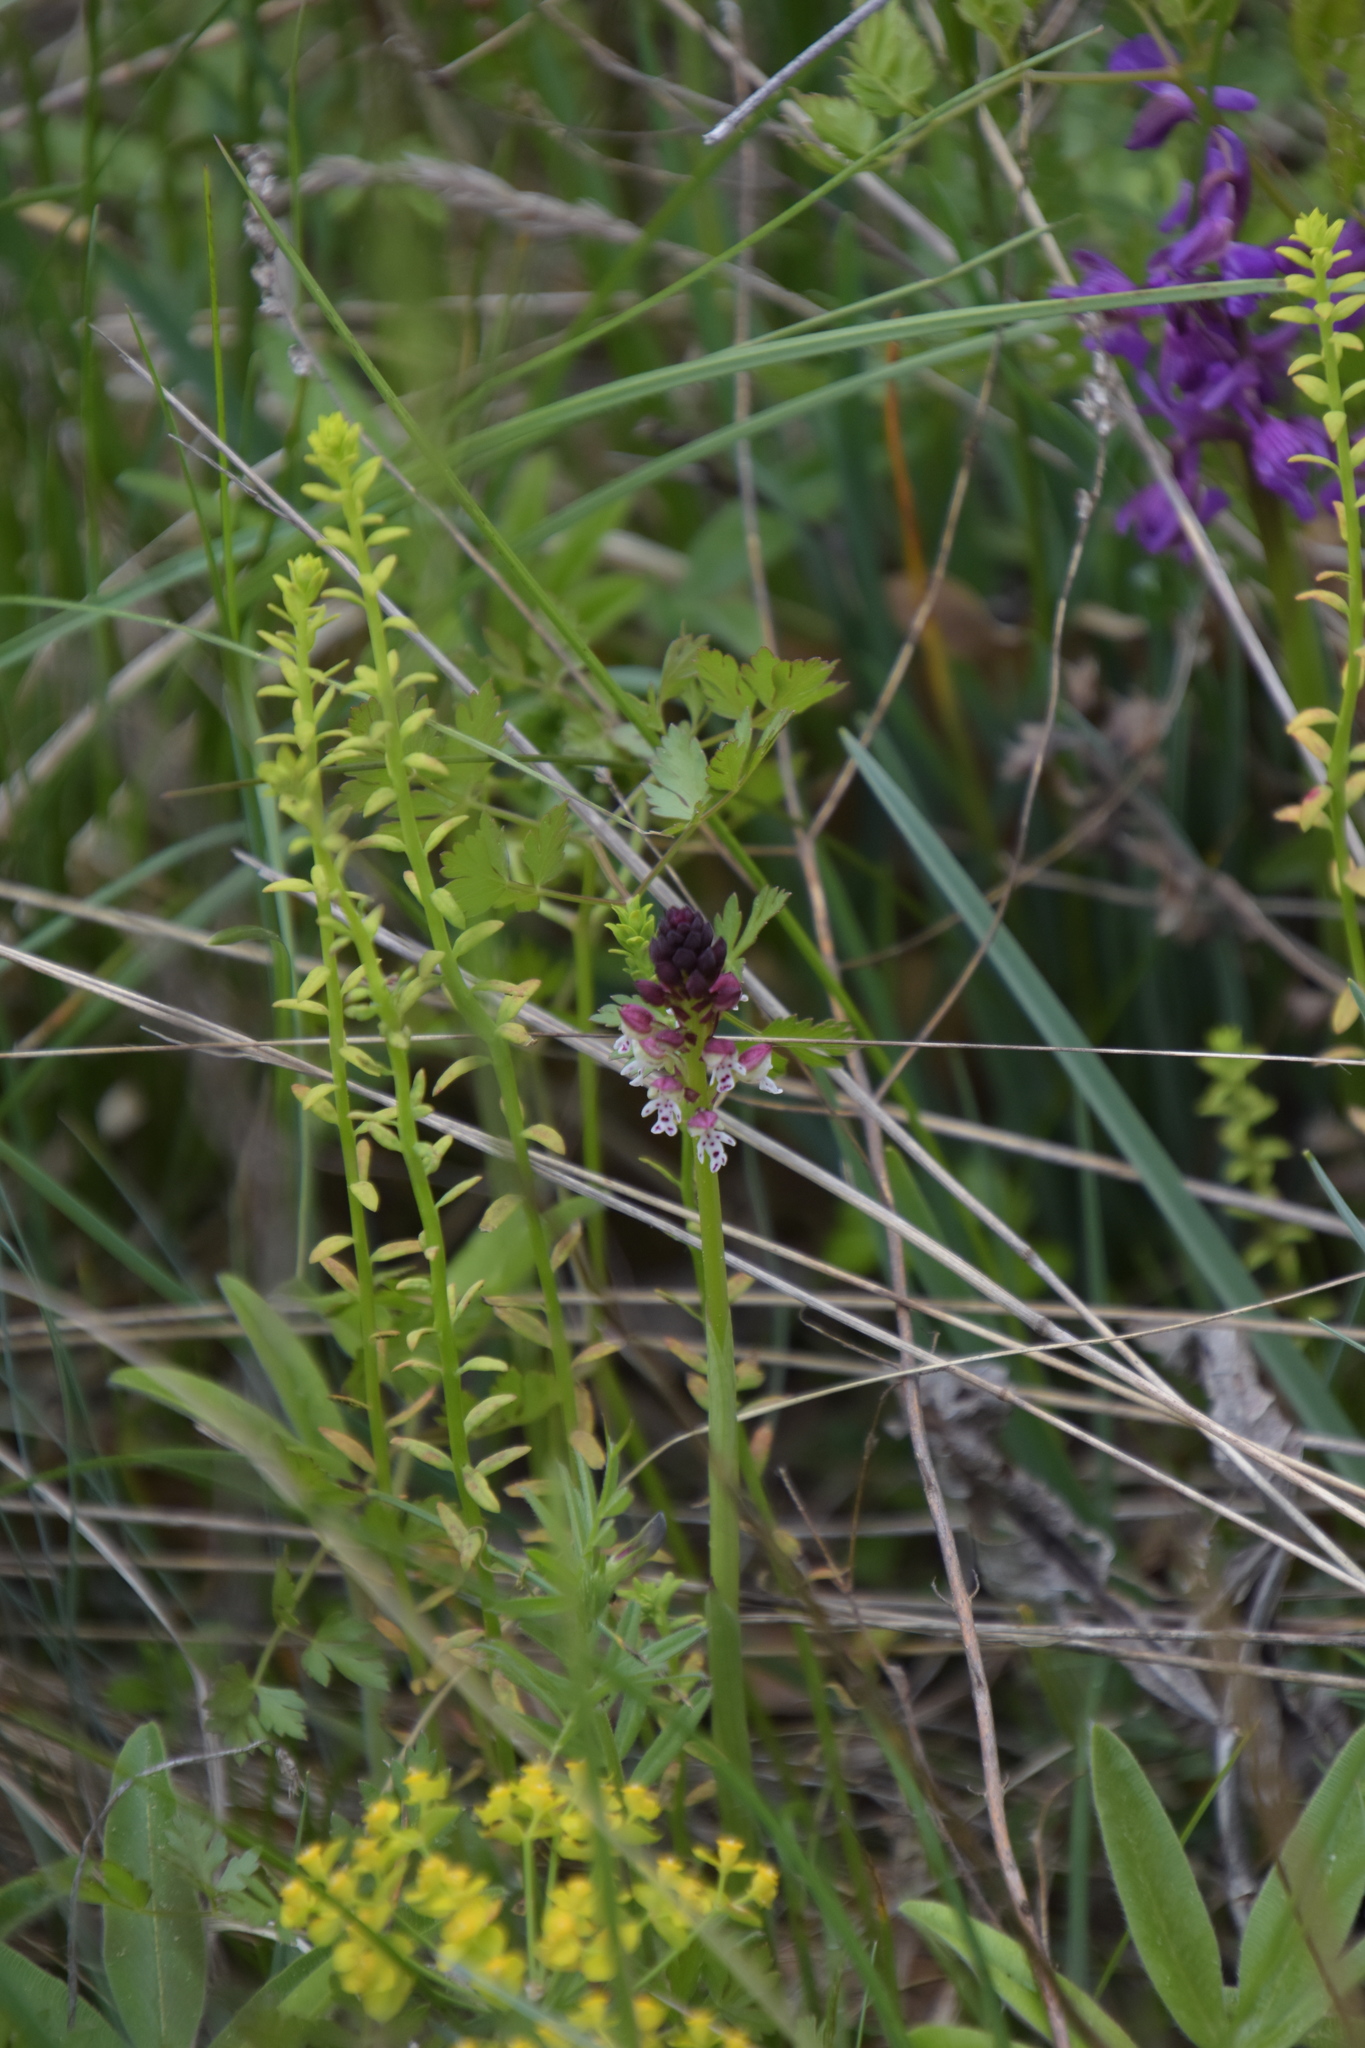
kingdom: Plantae
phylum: Tracheophyta
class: Liliopsida
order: Asparagales
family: Orchidaceae
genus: Neotinea
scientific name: Neotinea ustulata
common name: Burnt orchid
